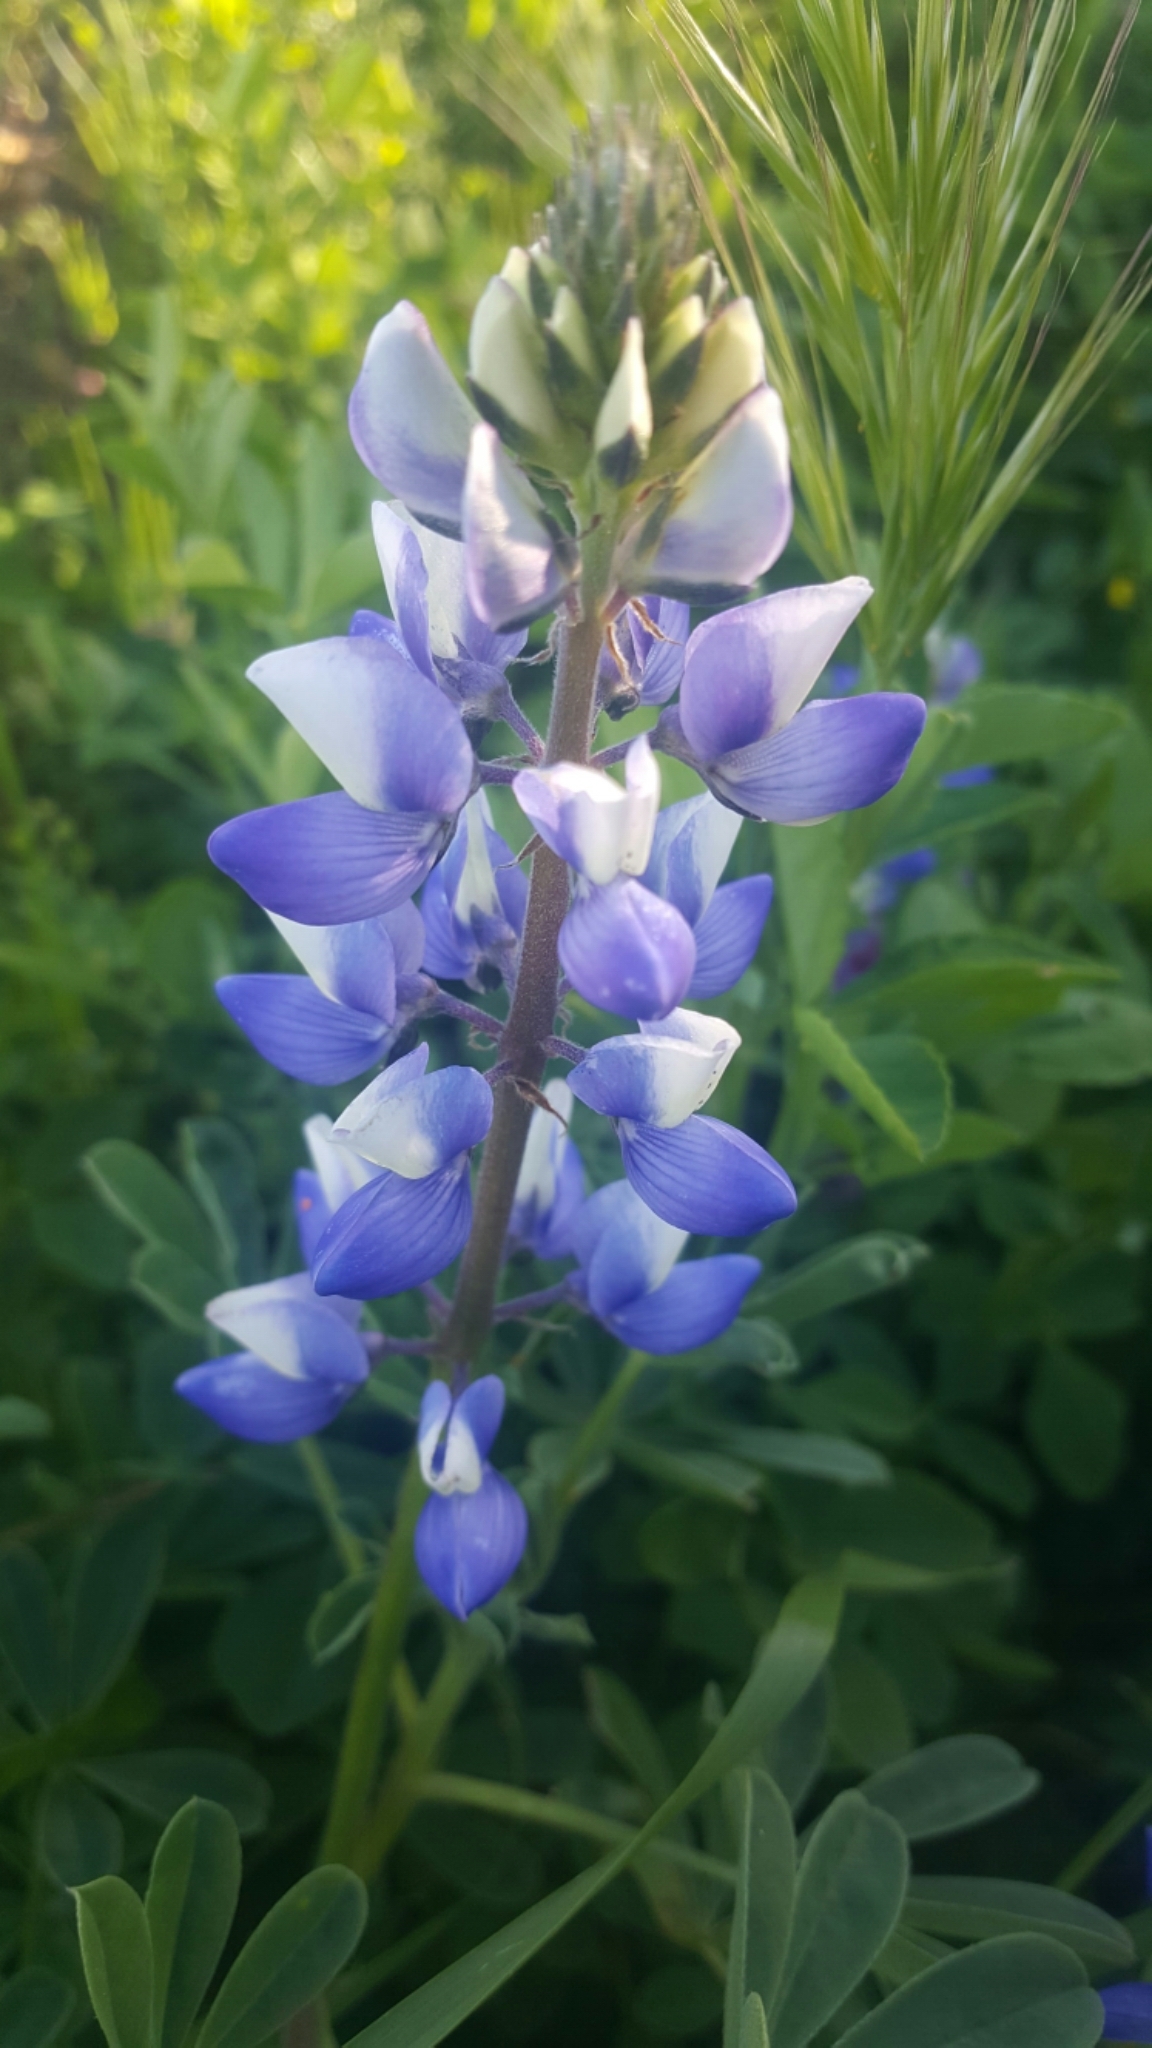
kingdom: Plantae
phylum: Tracheophyta
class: Magnoliopsida
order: Fabales
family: Fabaceae
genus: Lupinus
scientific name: Lupinus succulentus
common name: Arroyo lupine
